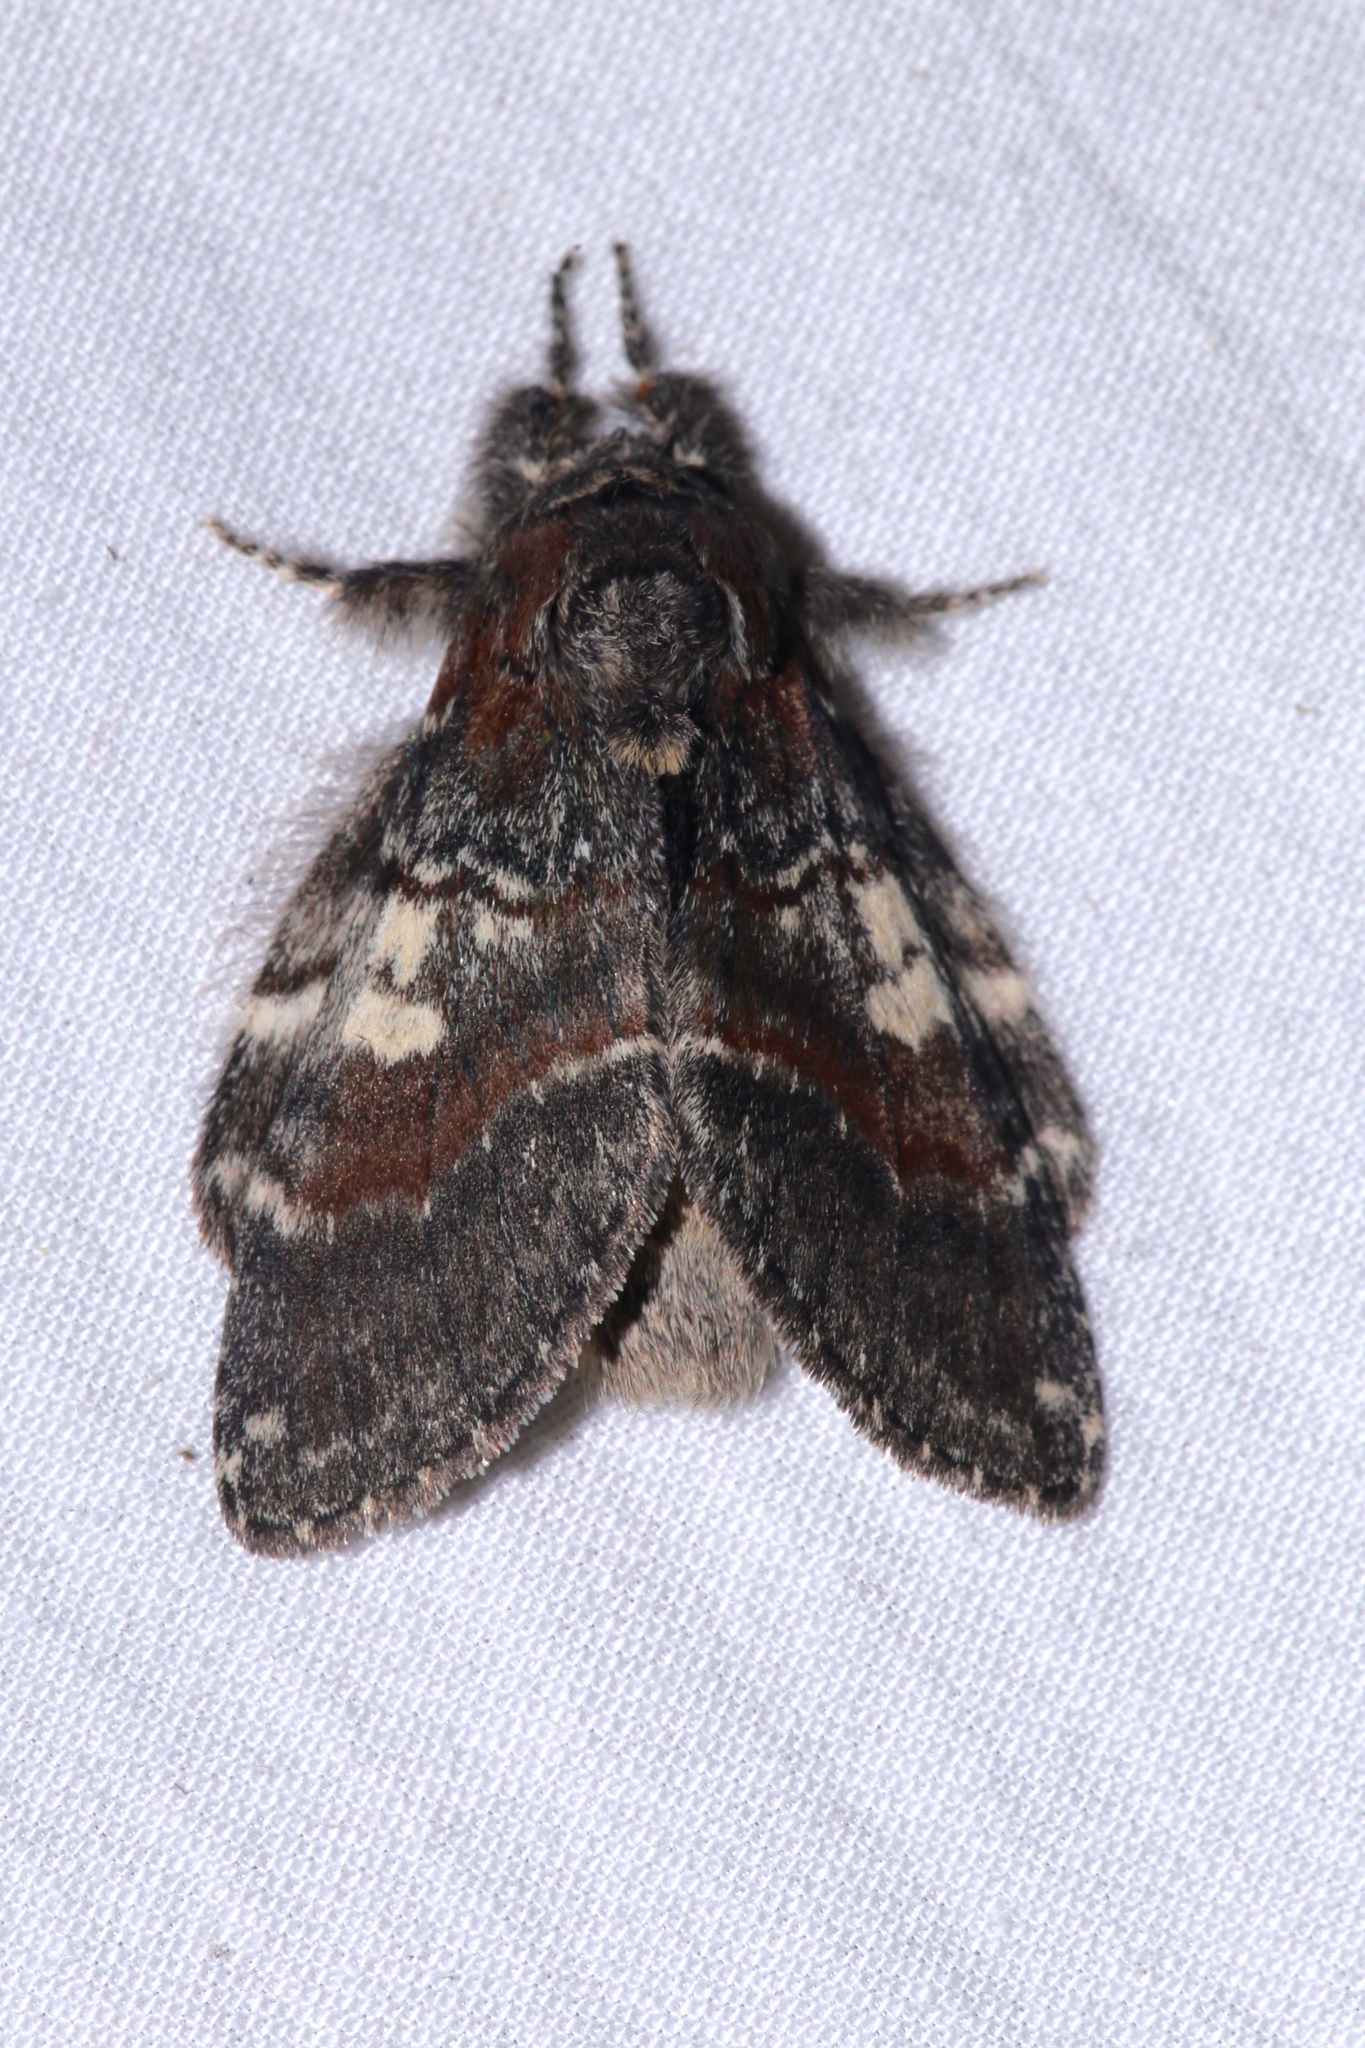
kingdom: Animalia
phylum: Arthropoda
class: Insecta
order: Lepidoptera
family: Notodontidae
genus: Peridea
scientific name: Peridea ferruginea
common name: Chocolate prominent
